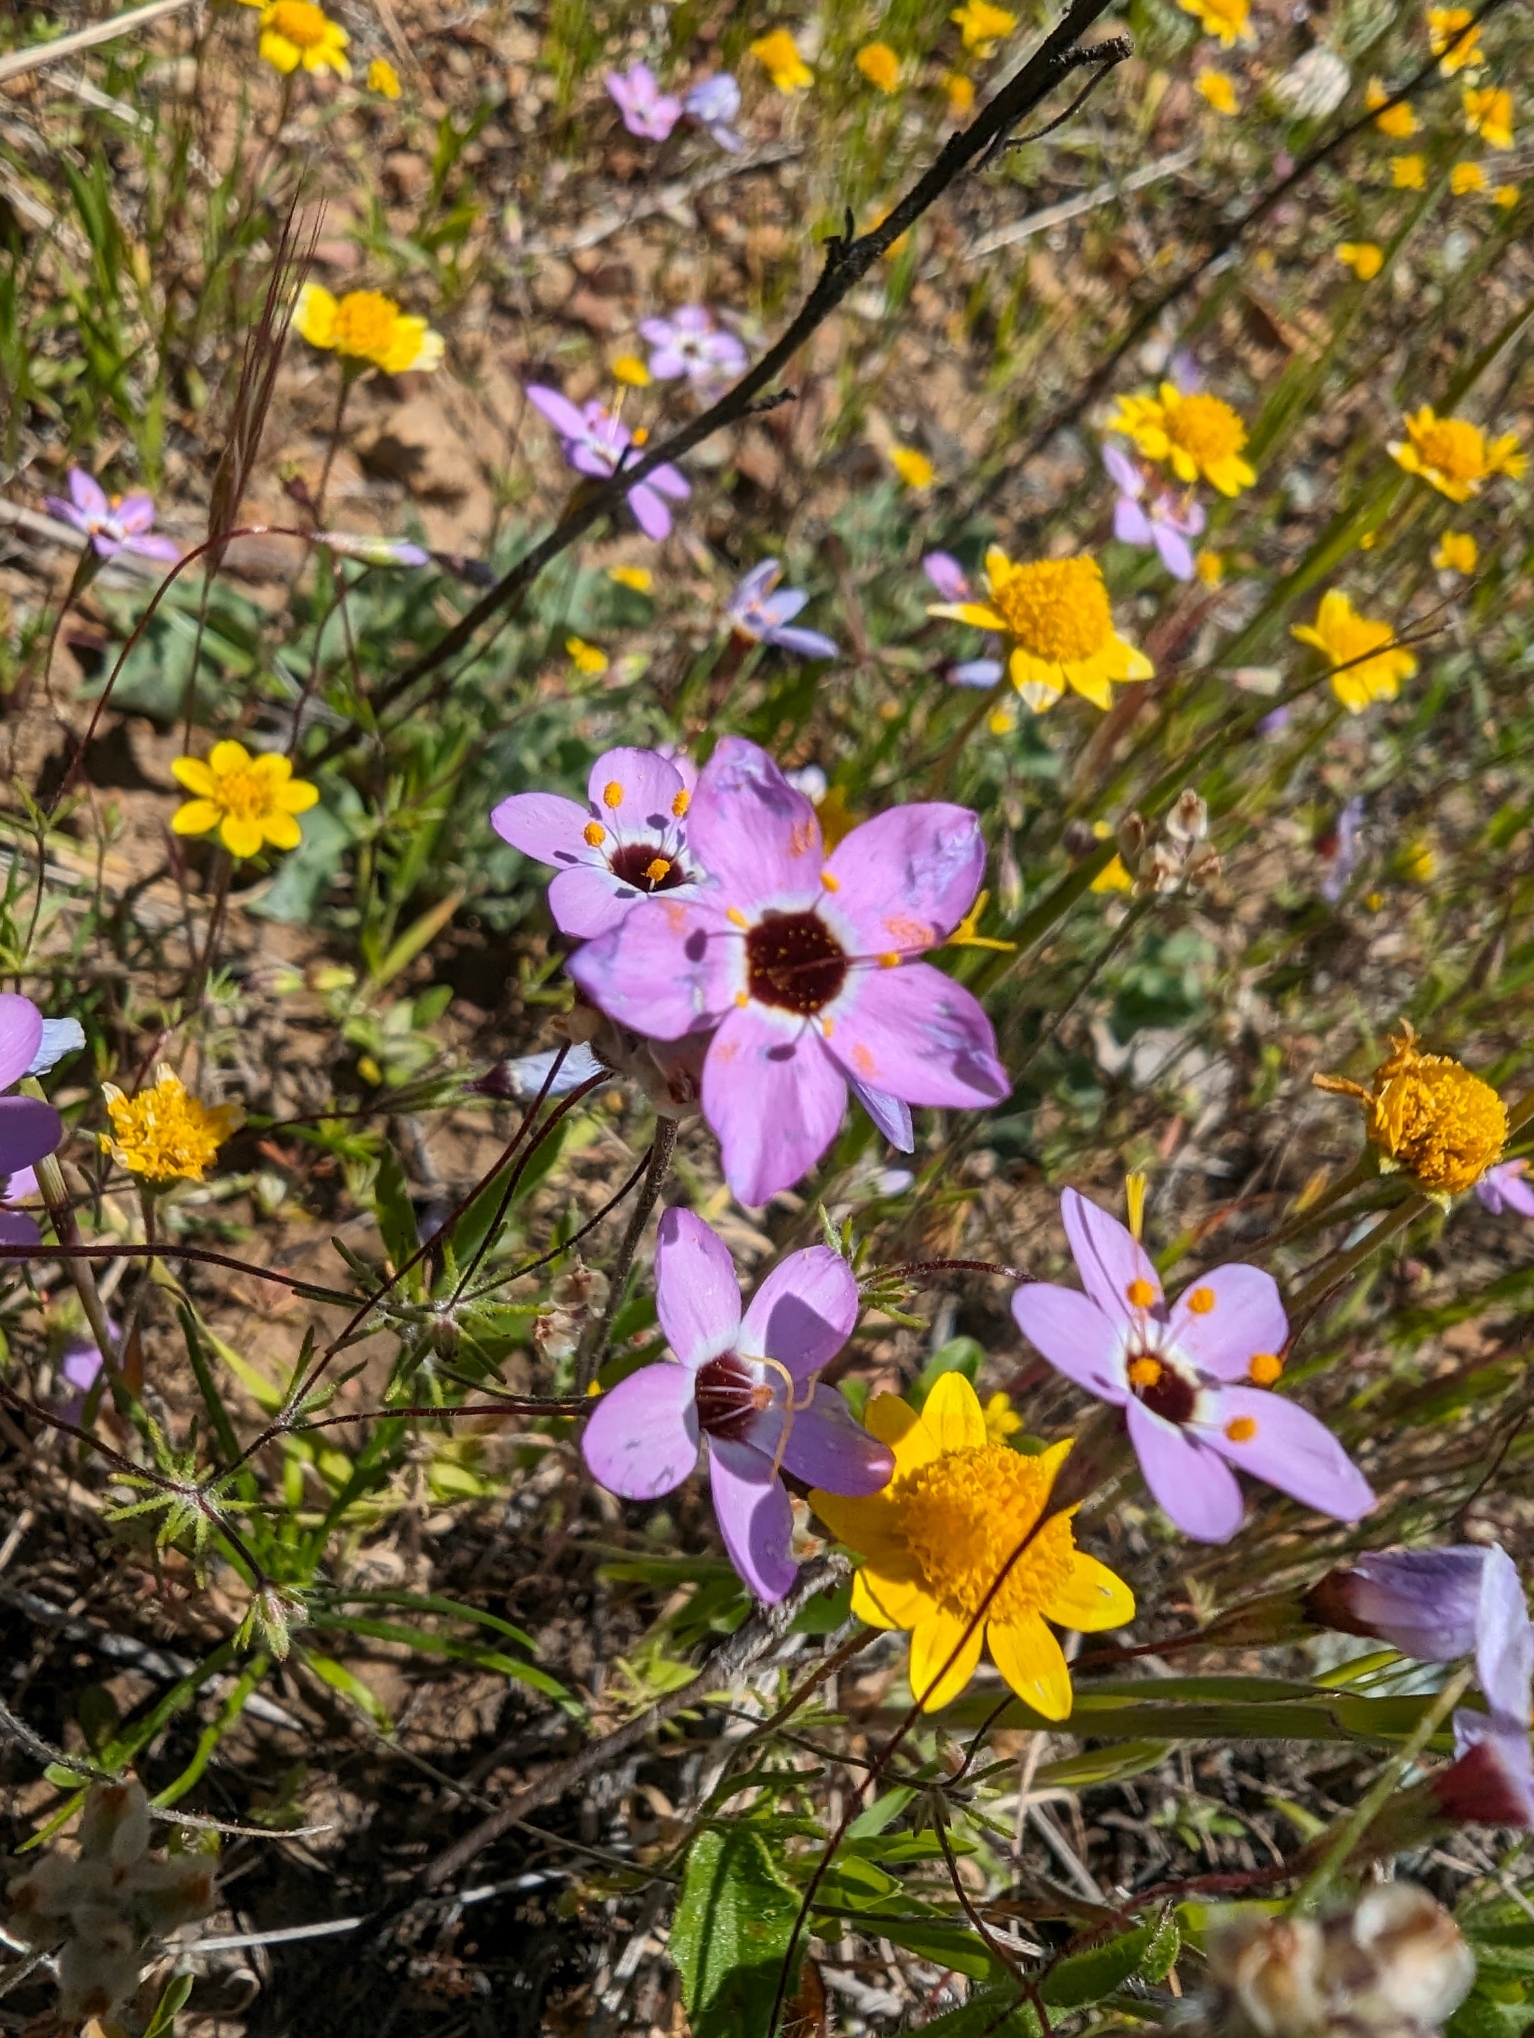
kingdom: Plantae
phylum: Tracheophyta
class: Magnoliopsida
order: Ericales
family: Polemoniaceae
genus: Leptosiphon
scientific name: Leptosiphon ambiguus
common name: Serpentine linanthus
